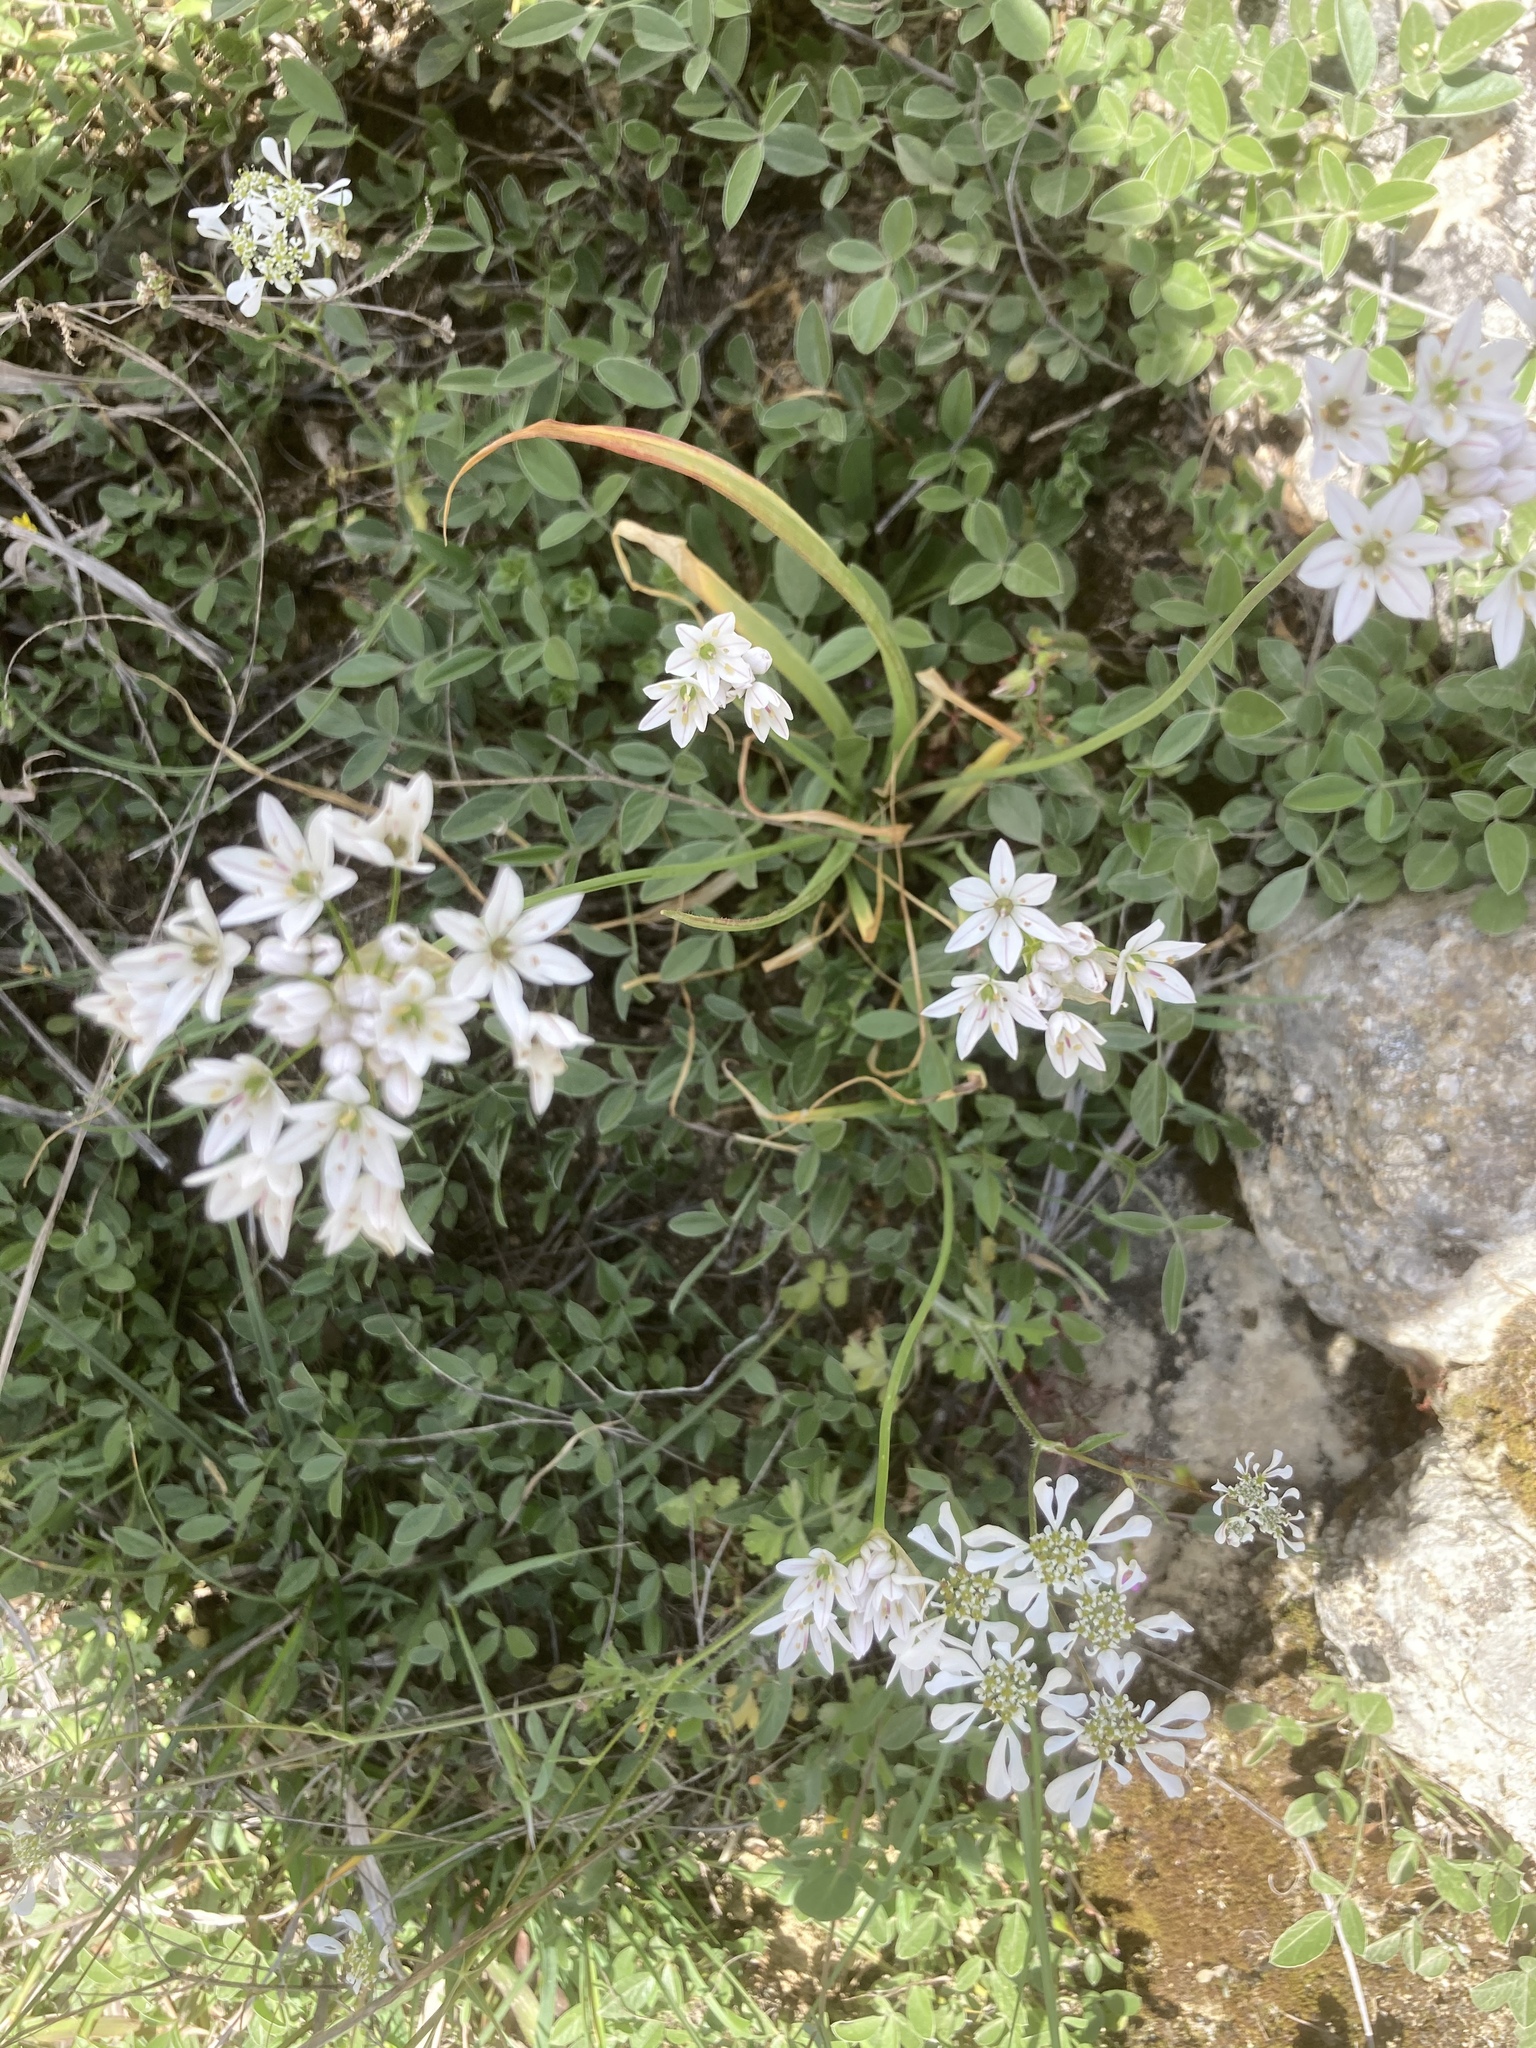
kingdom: Plantae
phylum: Tracheophyta
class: Liliopsida
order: Asparagales
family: Amaryllidaceae
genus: Allium
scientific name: Allium trifoliatum
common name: Pink garlic
